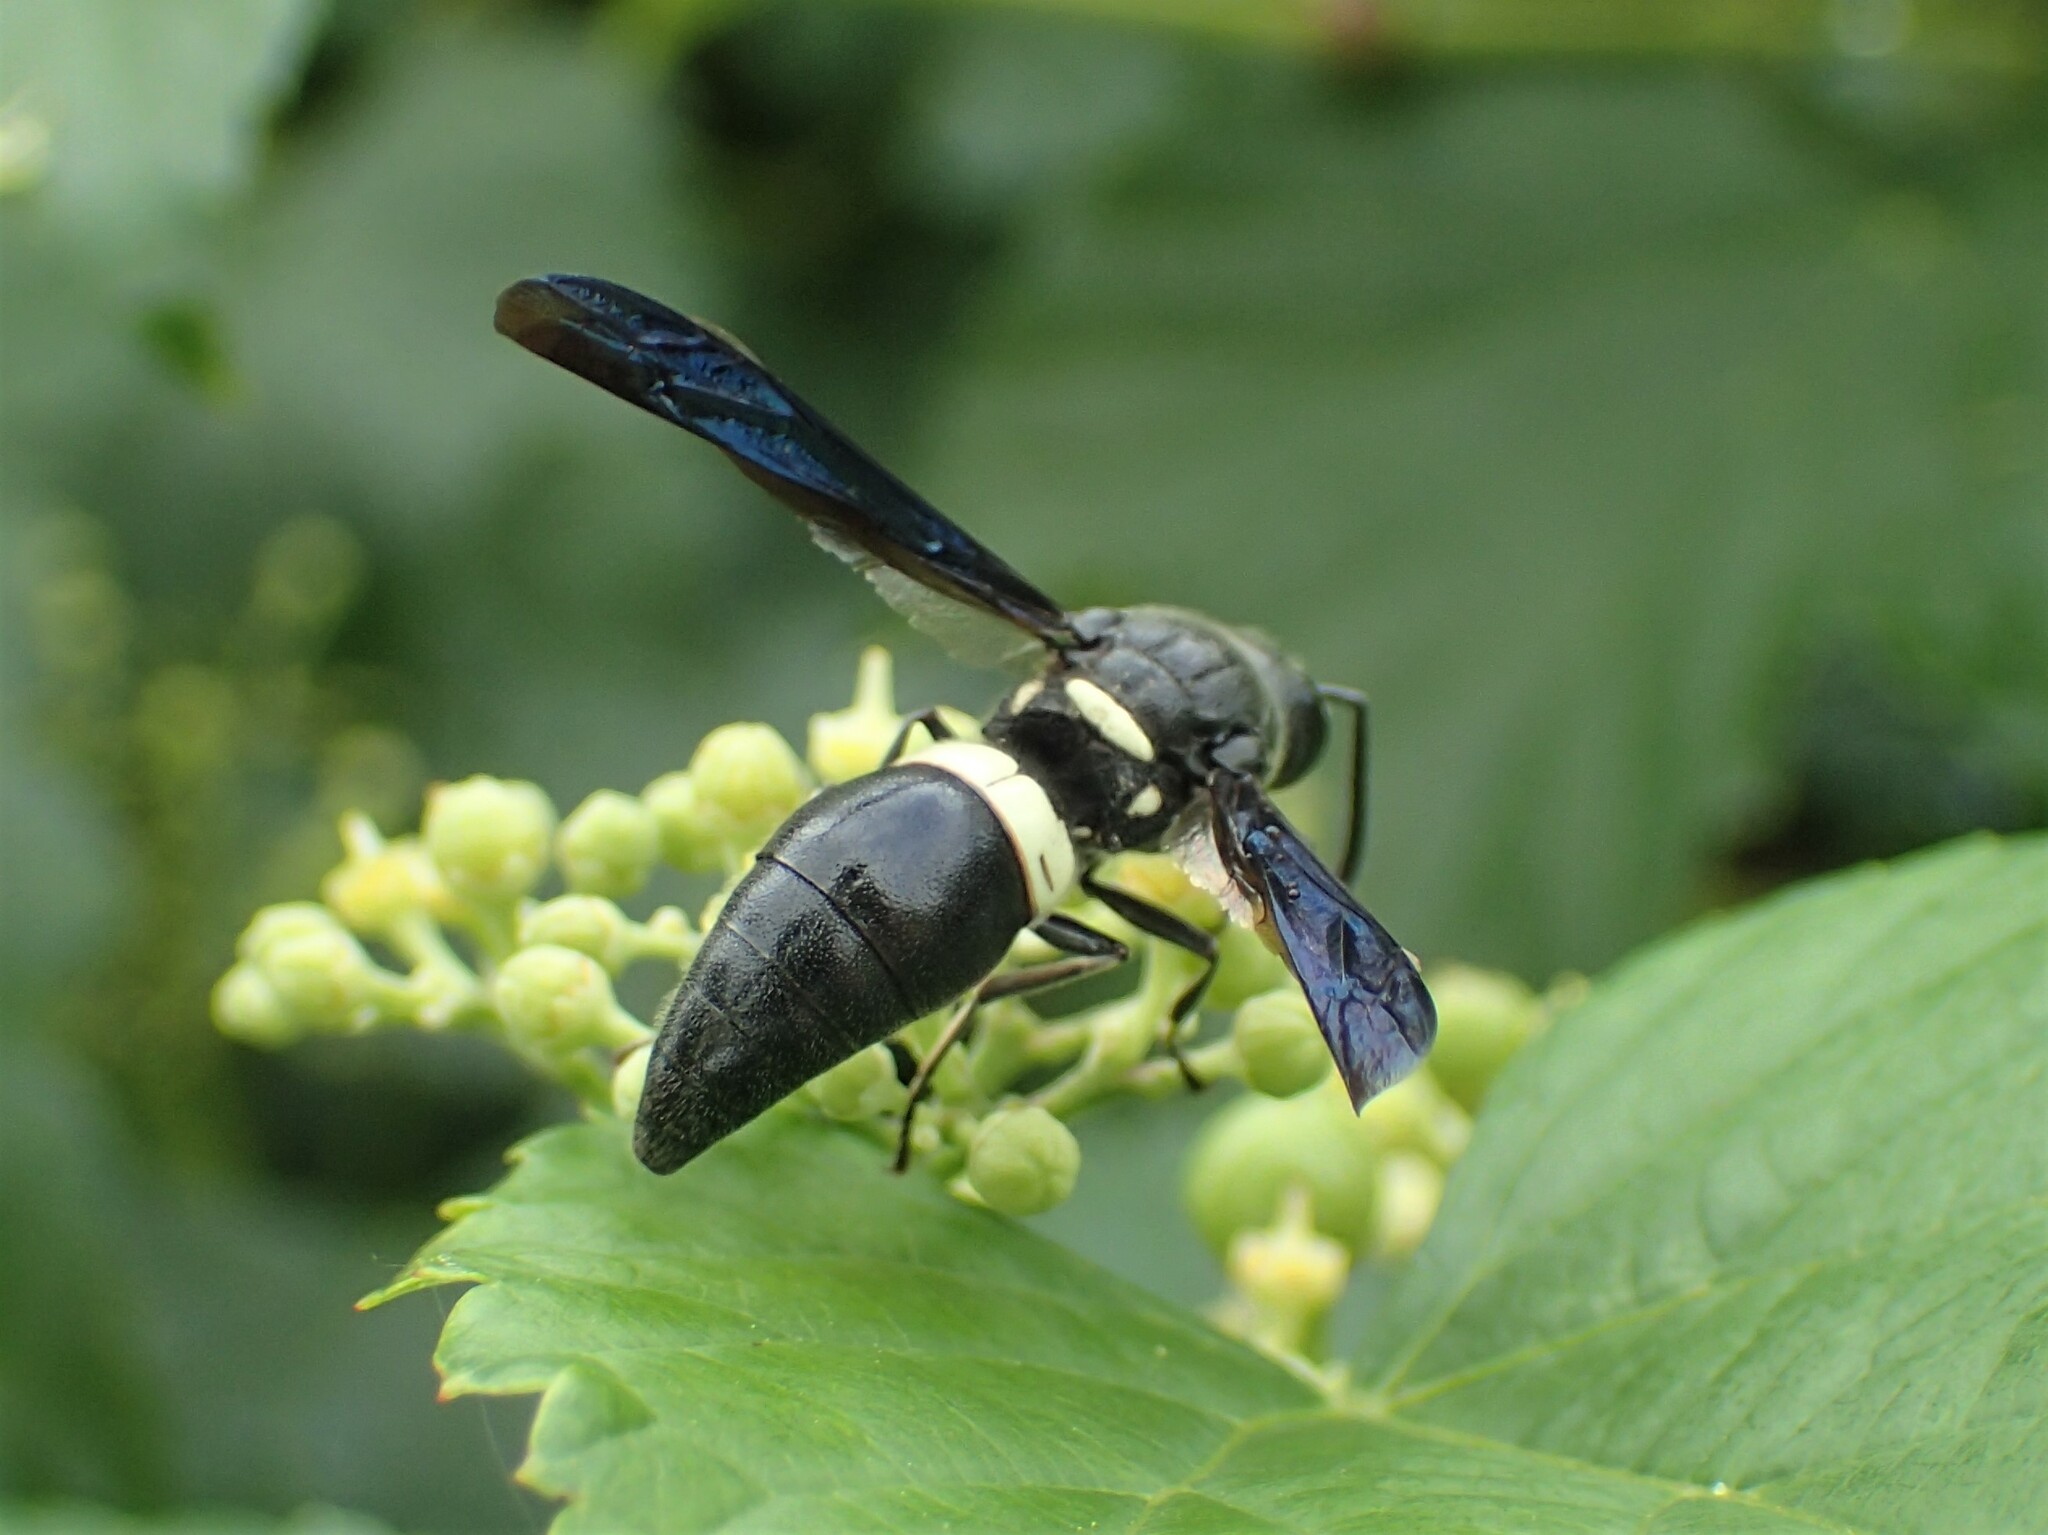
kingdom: Animalia
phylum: Arthropoda
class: Insecta
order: Hymenoptera
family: Eumenidae
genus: Monobia
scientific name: Monobia quadridens
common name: Four-toothed mason wasp
